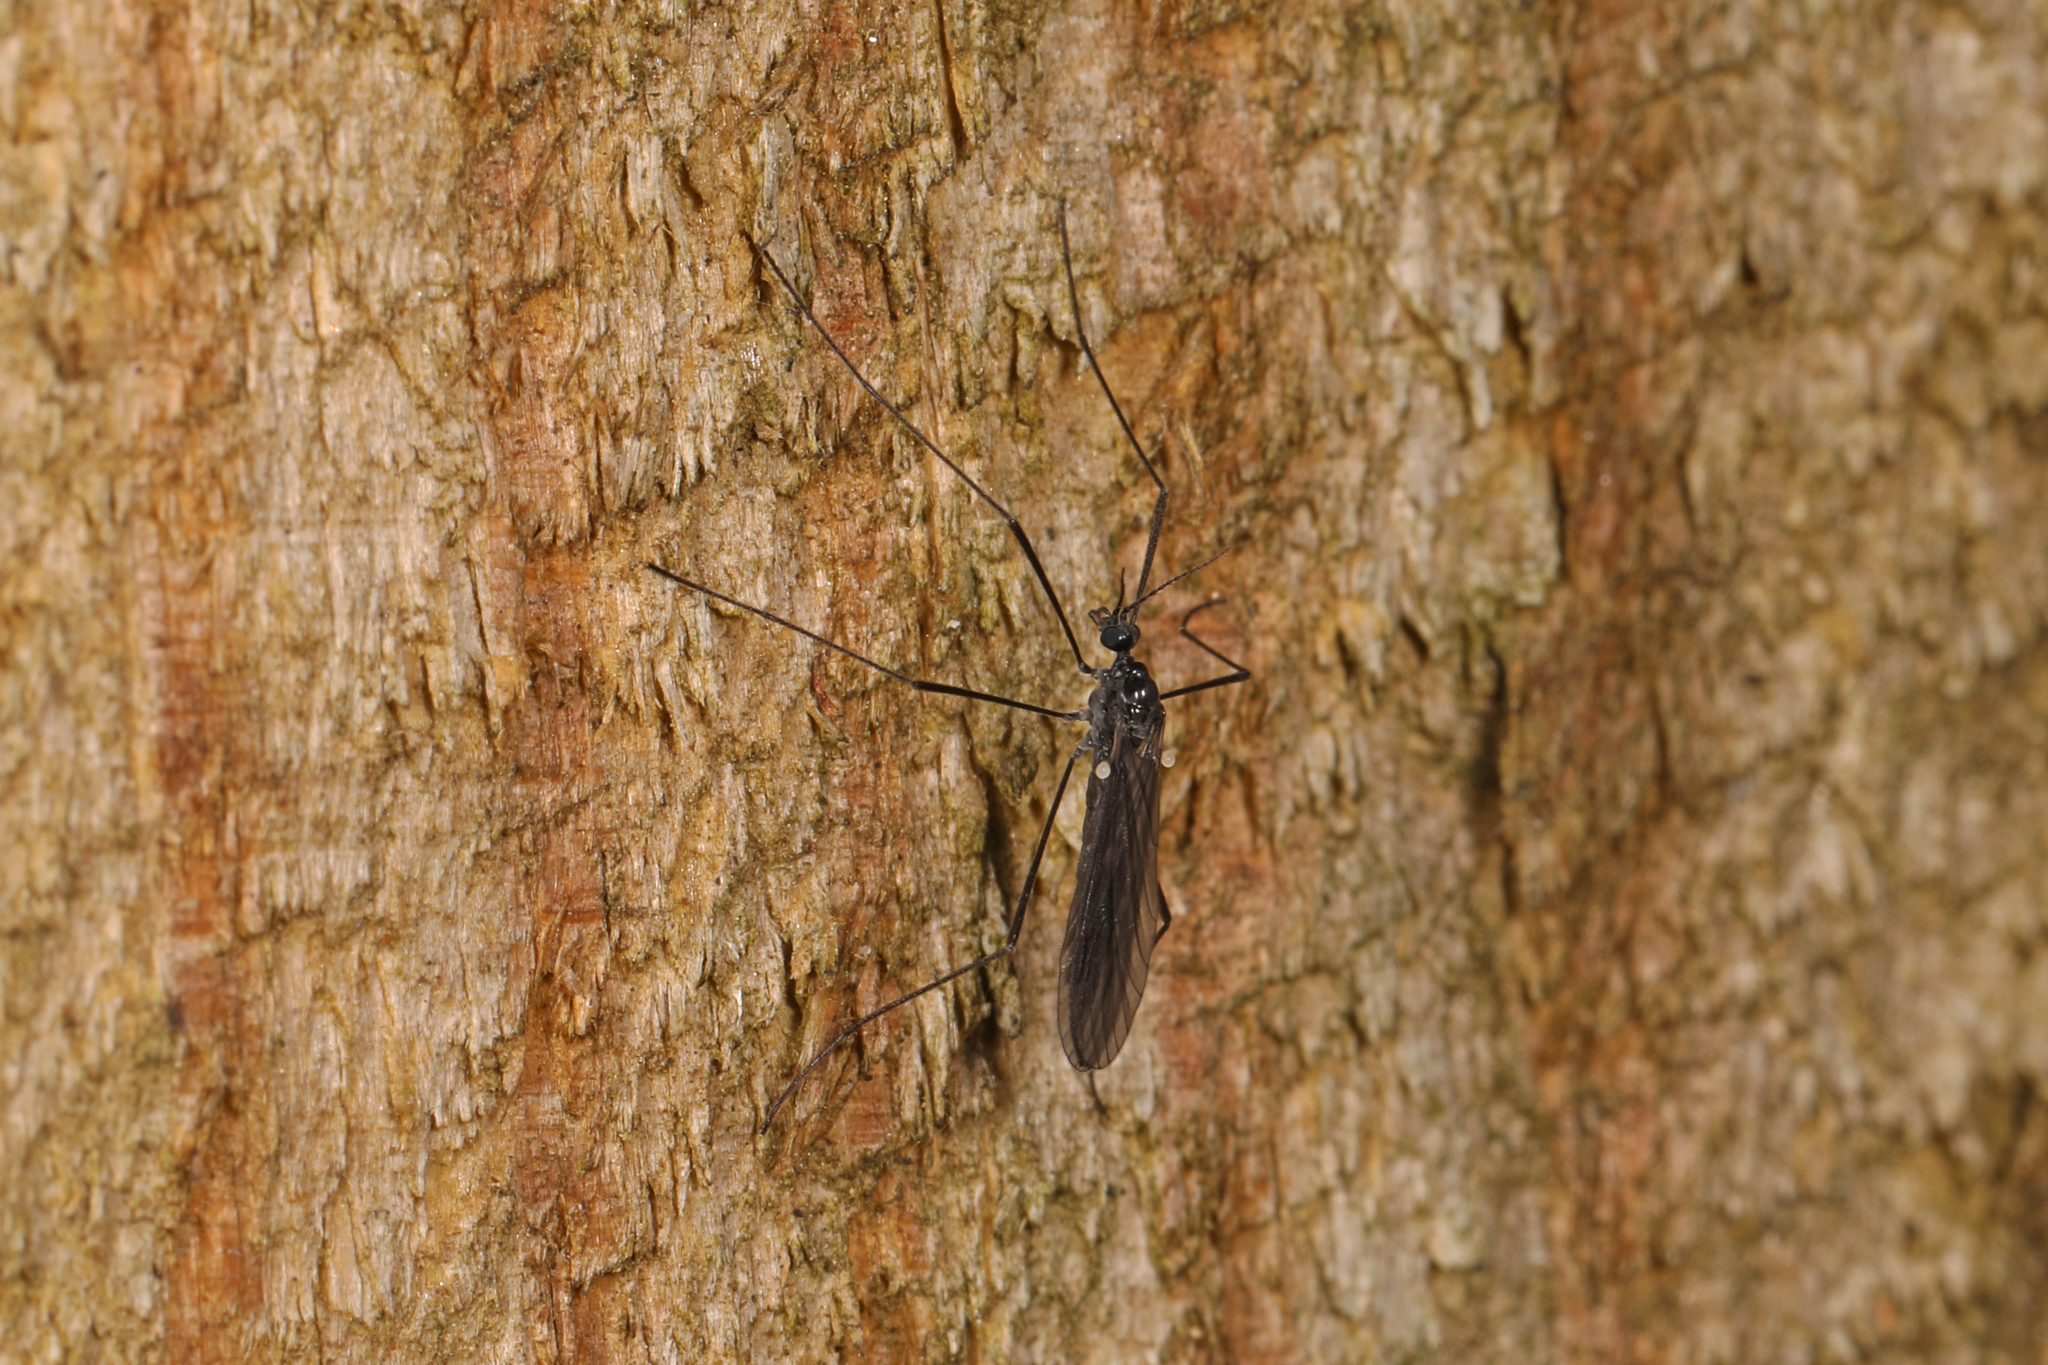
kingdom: Animalia
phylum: Arthropoda
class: Insecta
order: Diptera
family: Limoniidae
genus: Gnophomyia
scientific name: Gnophomyia tristissima
